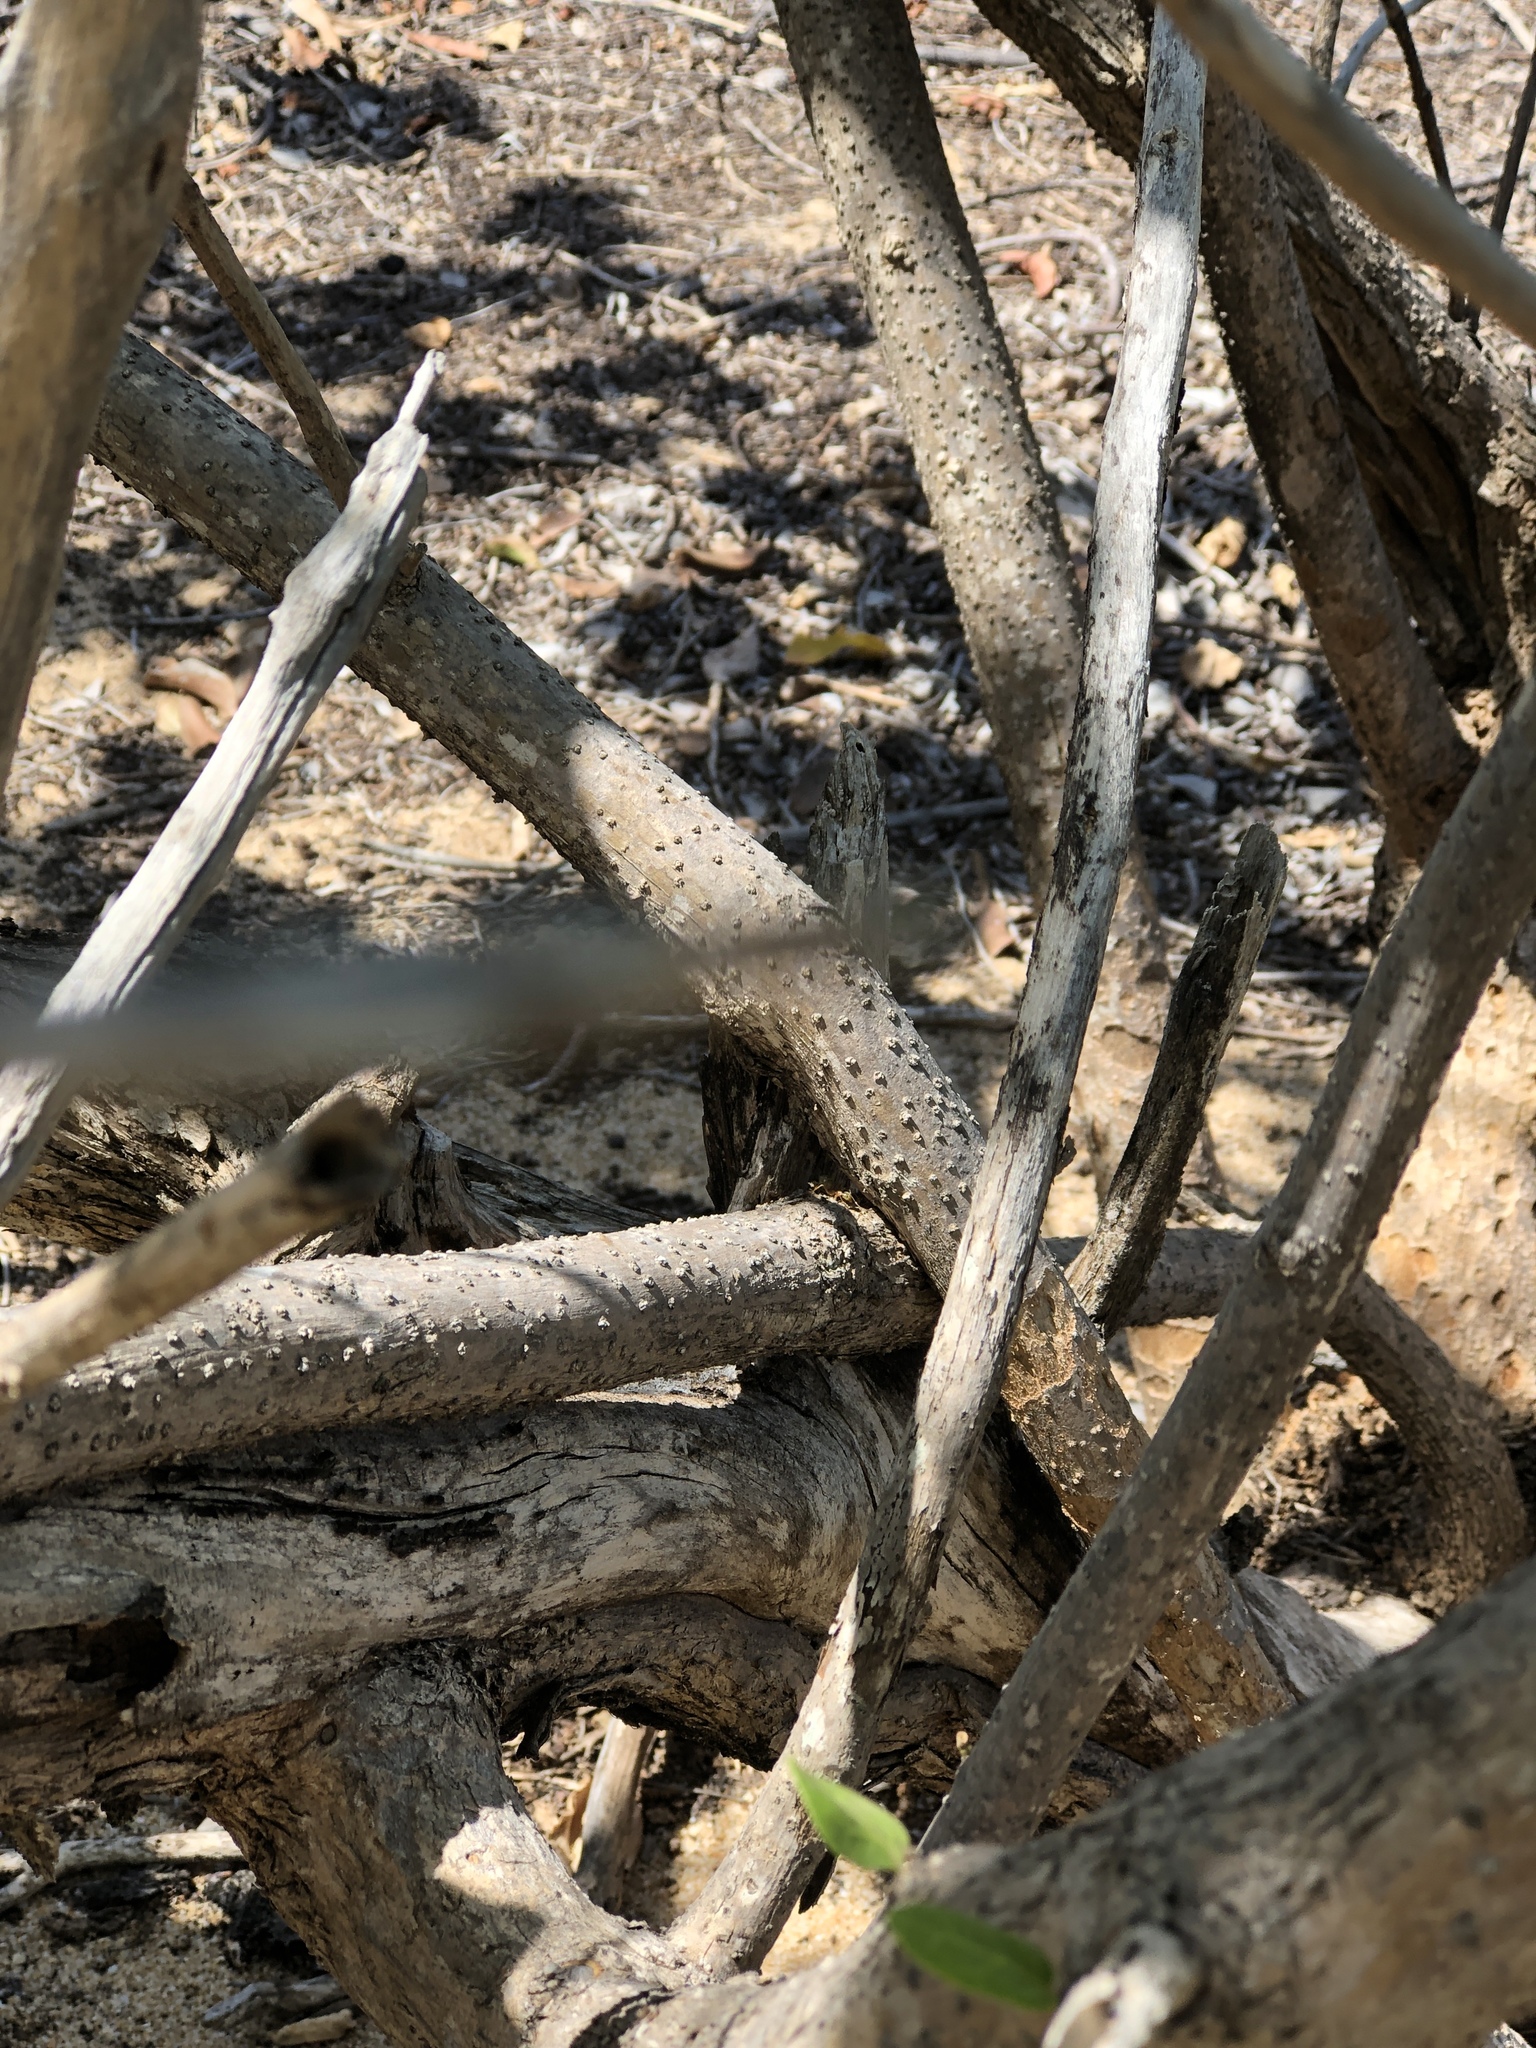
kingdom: Plantae
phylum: Tracheophyta
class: Magnoliopsida
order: Lamiales
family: Lamiaceae
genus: Premna
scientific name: Premna serratifolia
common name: Bastard guelder
